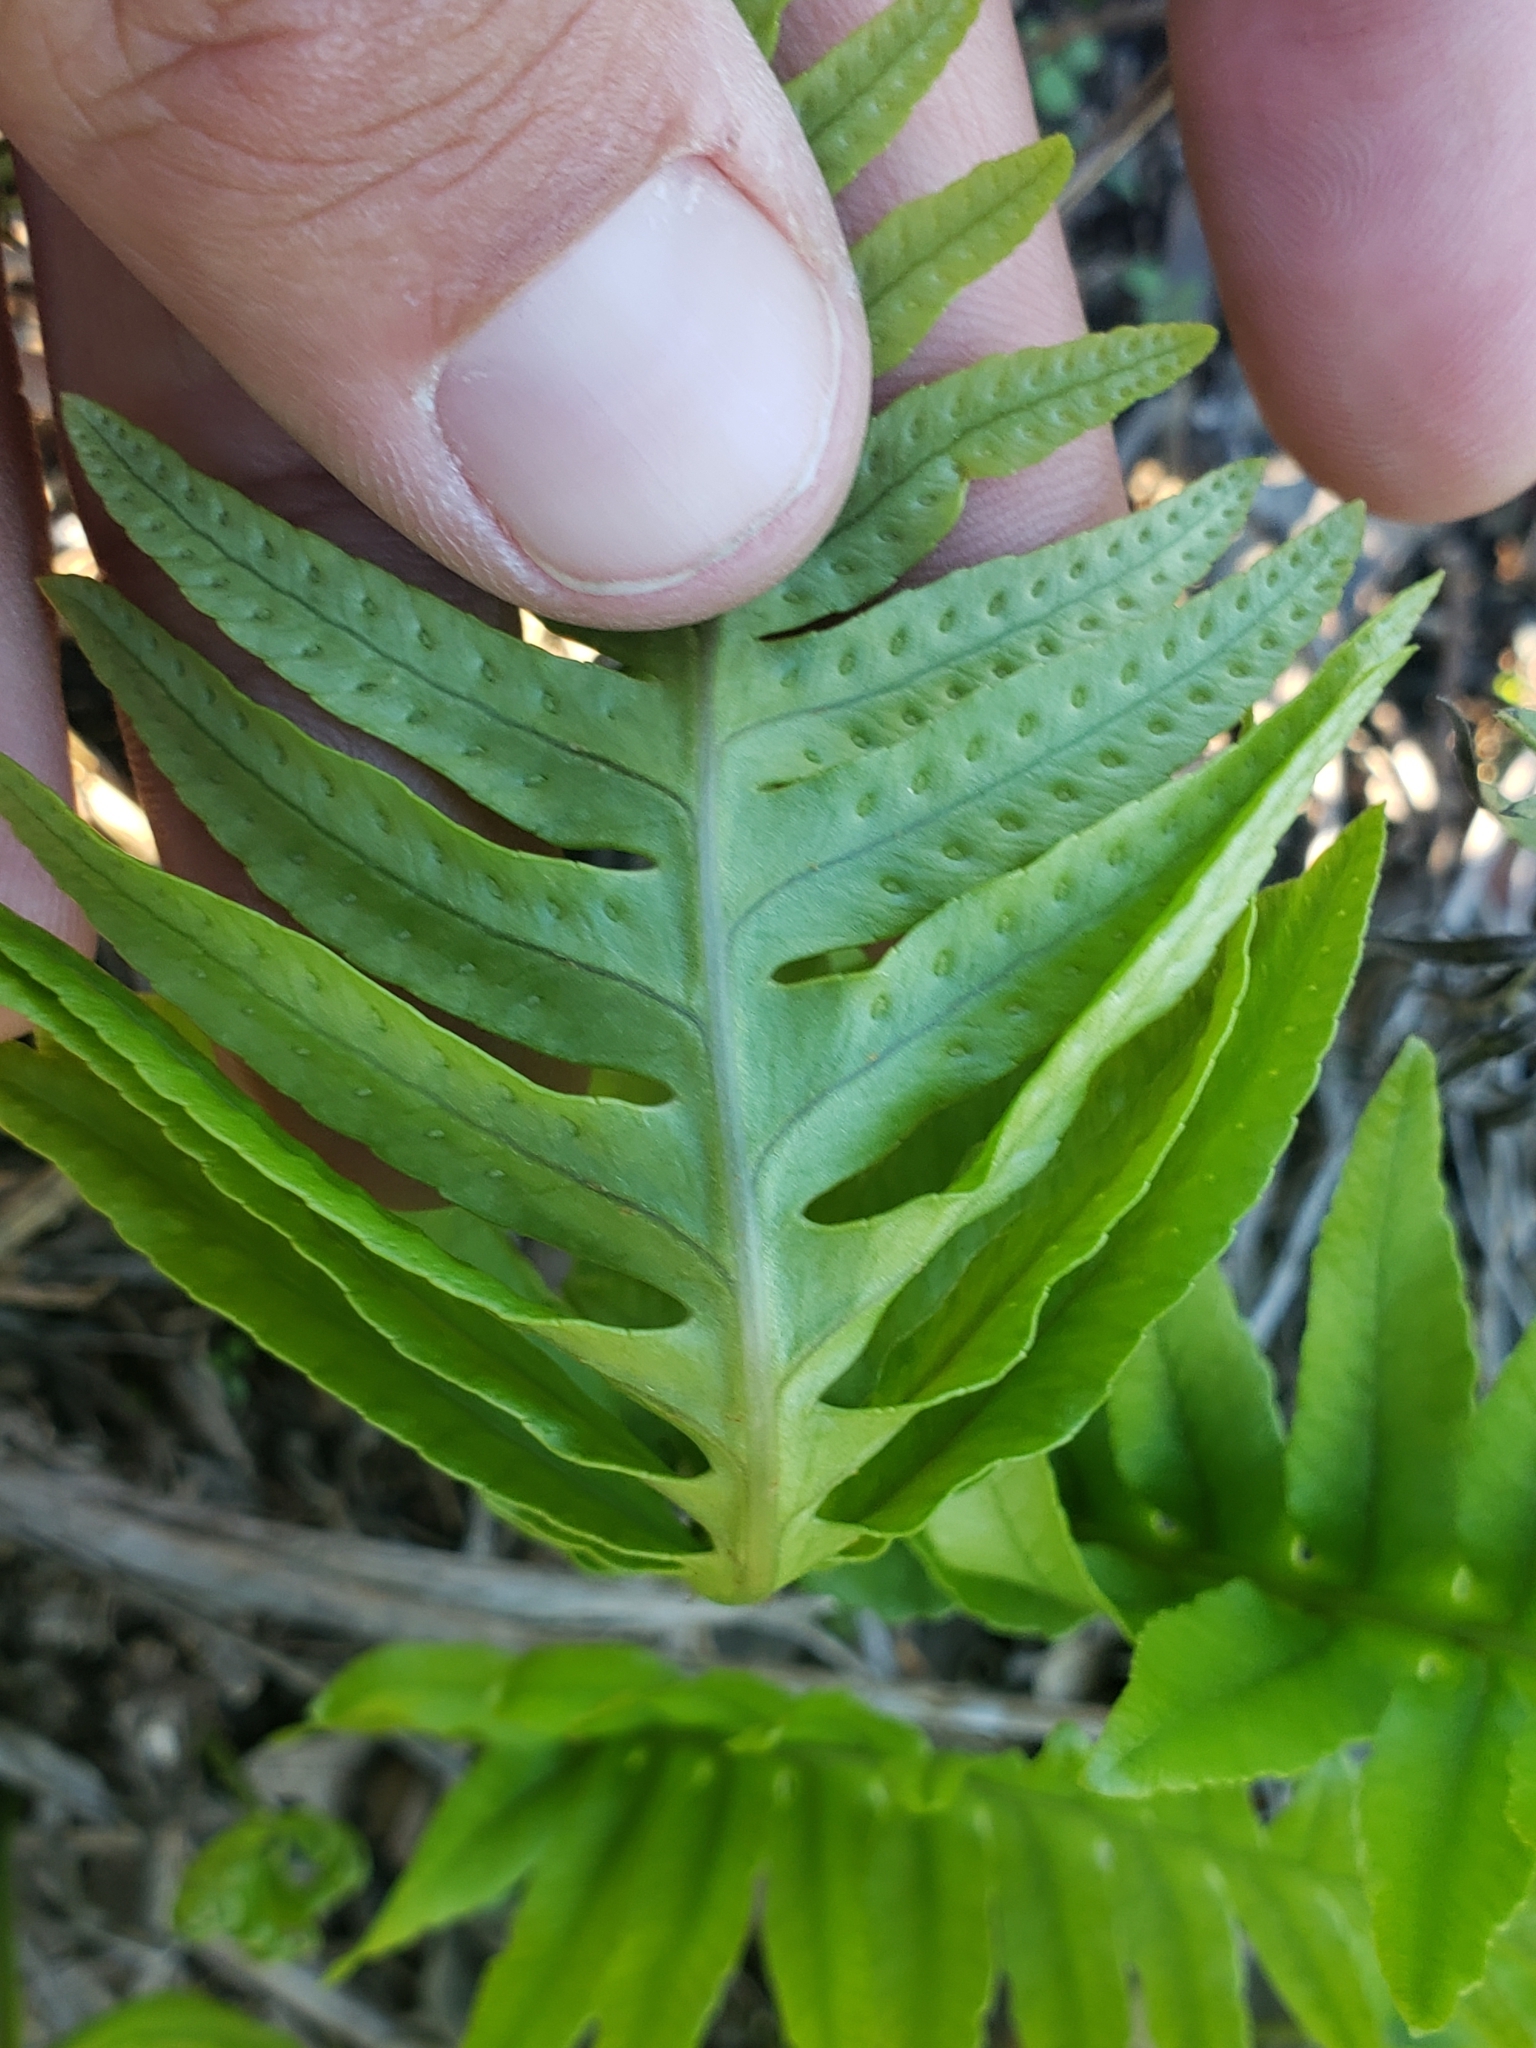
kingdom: Plantae
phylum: Tracheophyta
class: Polypodiopsida
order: Polypodiales
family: Polypodiaceae
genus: Polypodium
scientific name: Polypodium cambricum
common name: Southern polypody
